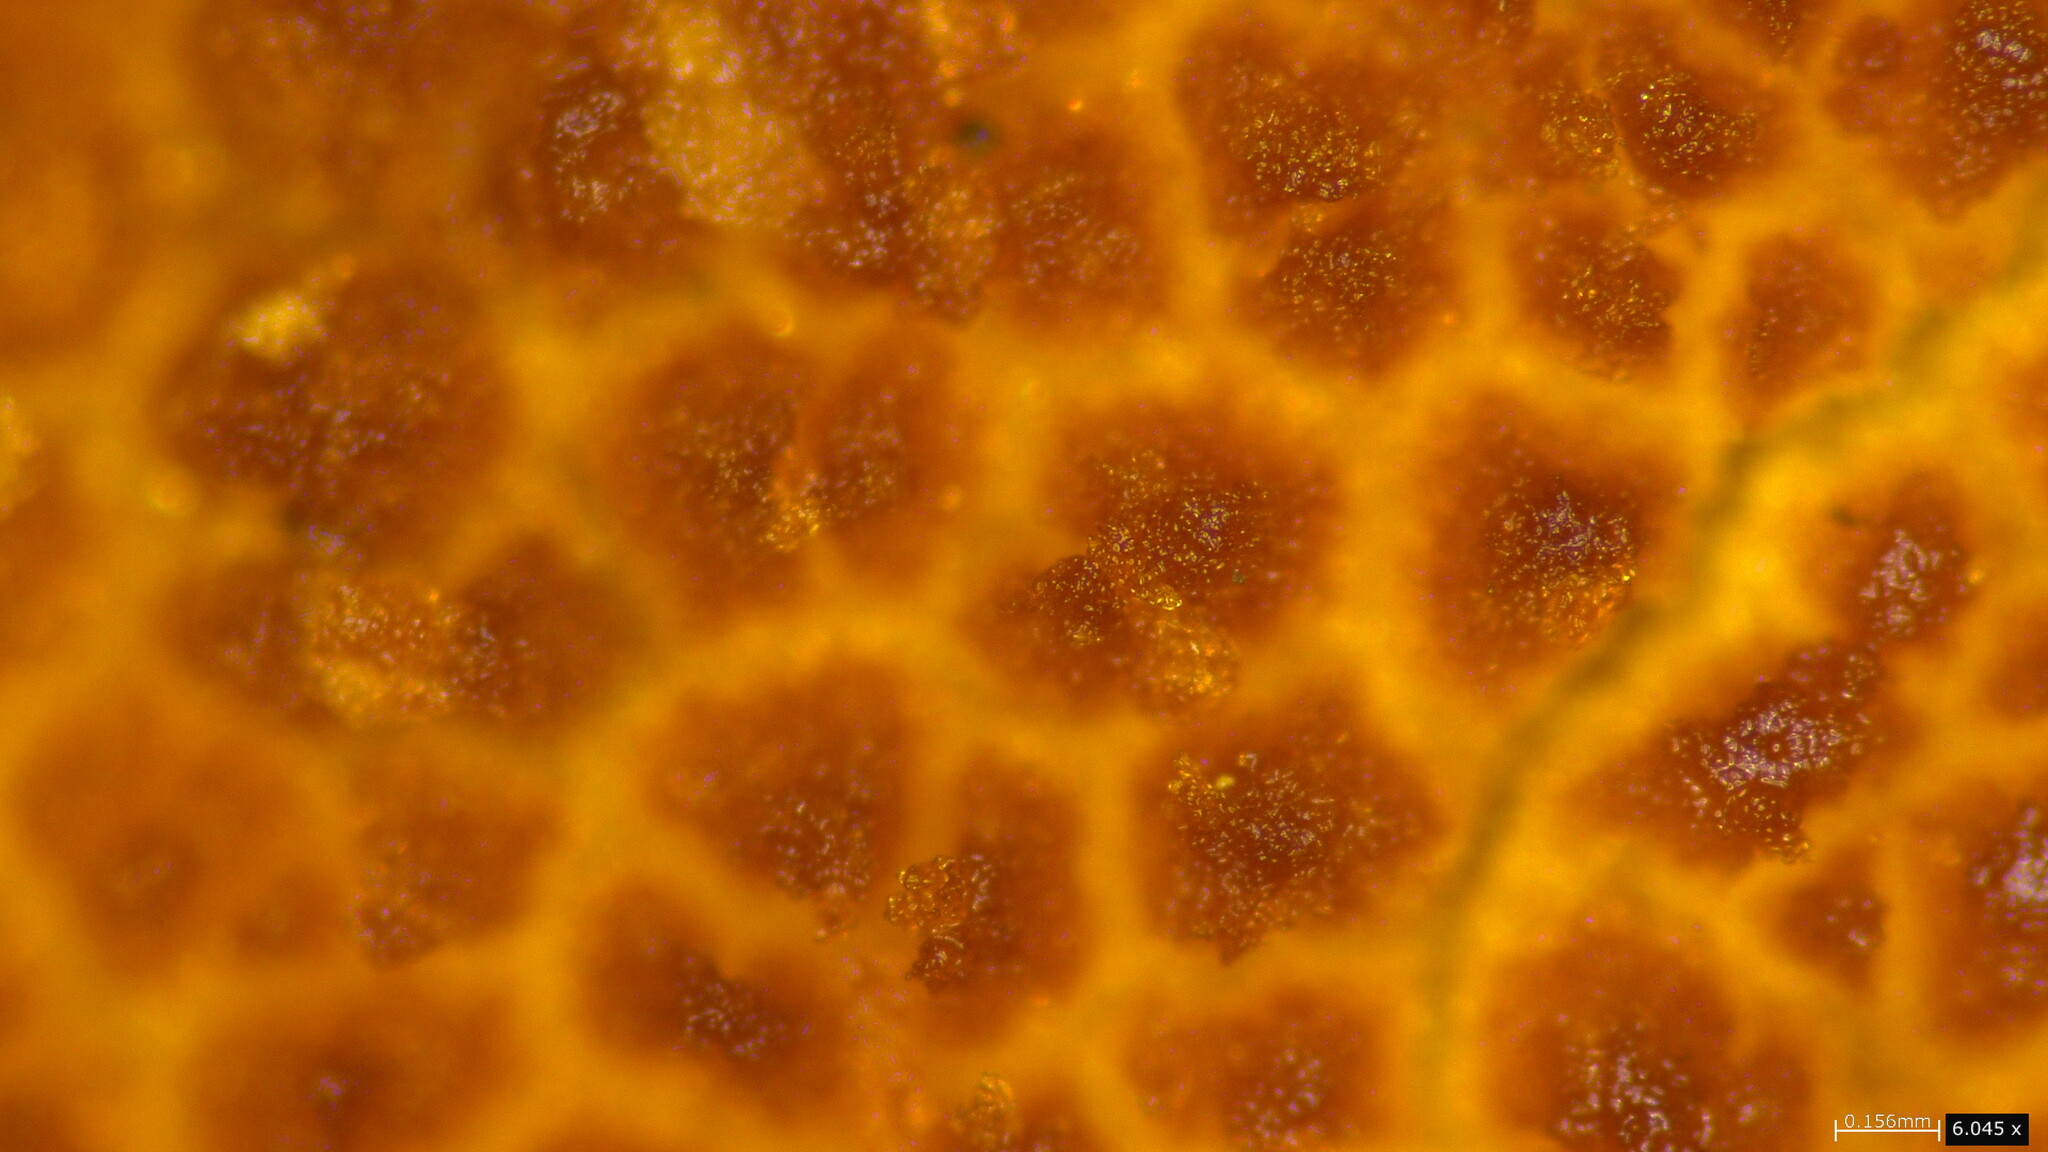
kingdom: Fungi
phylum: Basidiomycota
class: Agaricomycetes
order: Agaricales
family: Tubariaceae
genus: Flammulaster
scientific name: Flammulaster erinaceellus
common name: Powder-scale pholiota
